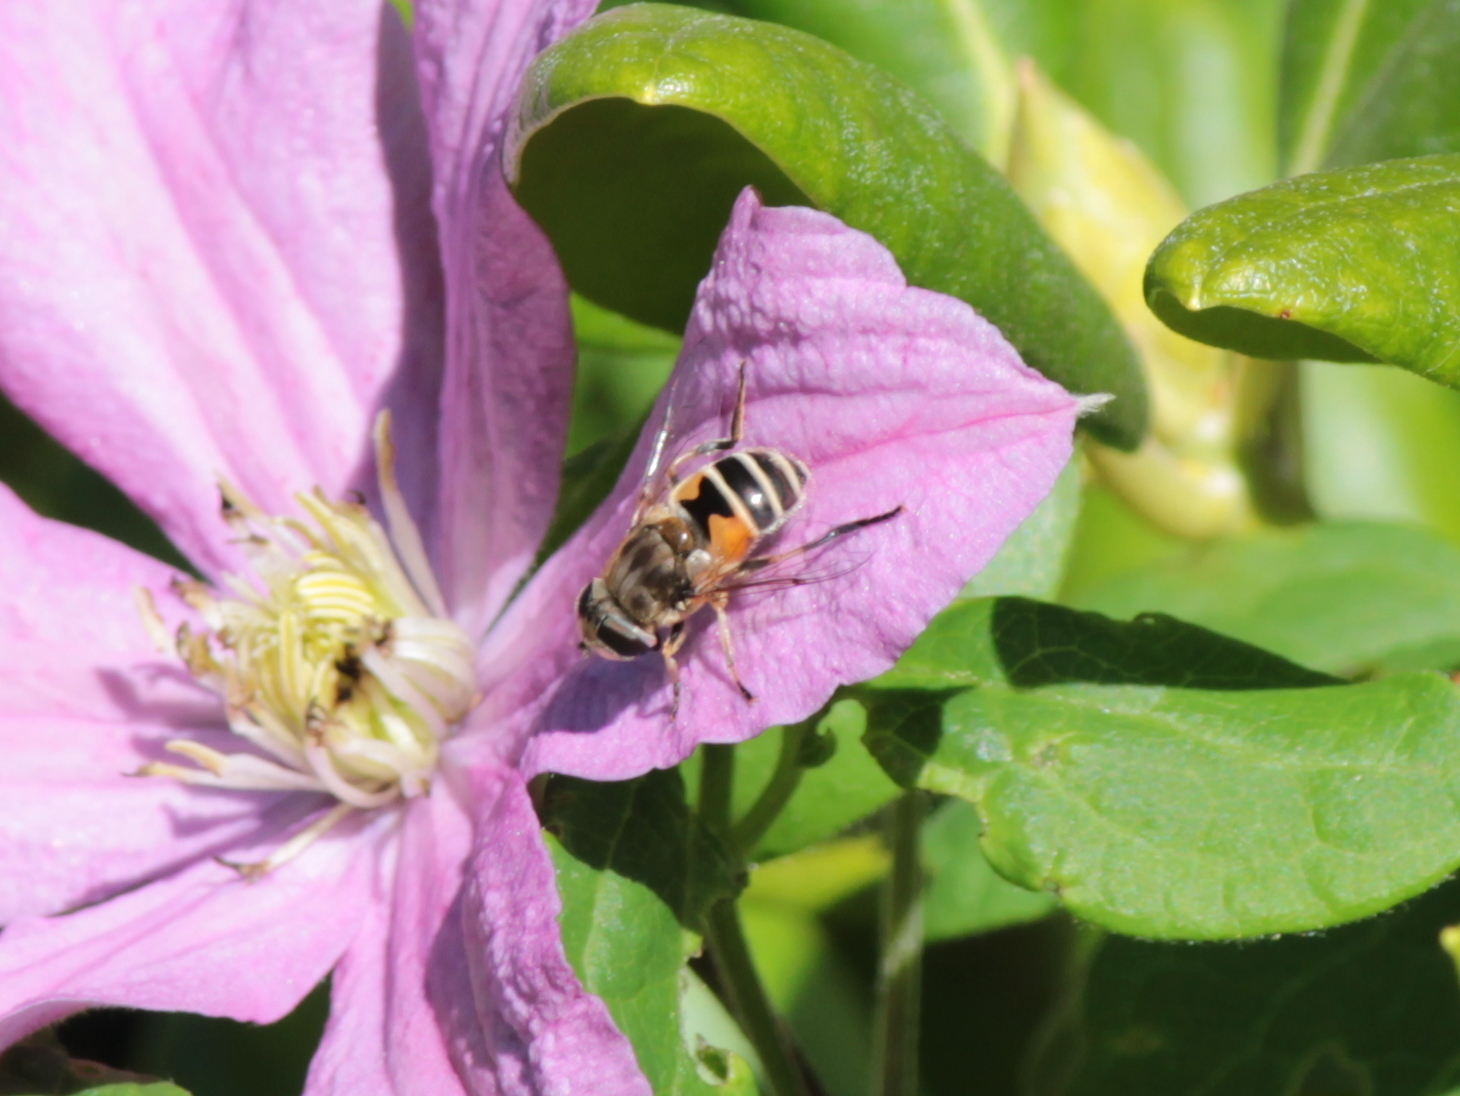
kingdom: Animalia
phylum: Arthropoda
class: Insecta
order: Diptera
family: Syrphidae
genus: Eristalis
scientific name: Eristalis arbustorum
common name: Hover fly
